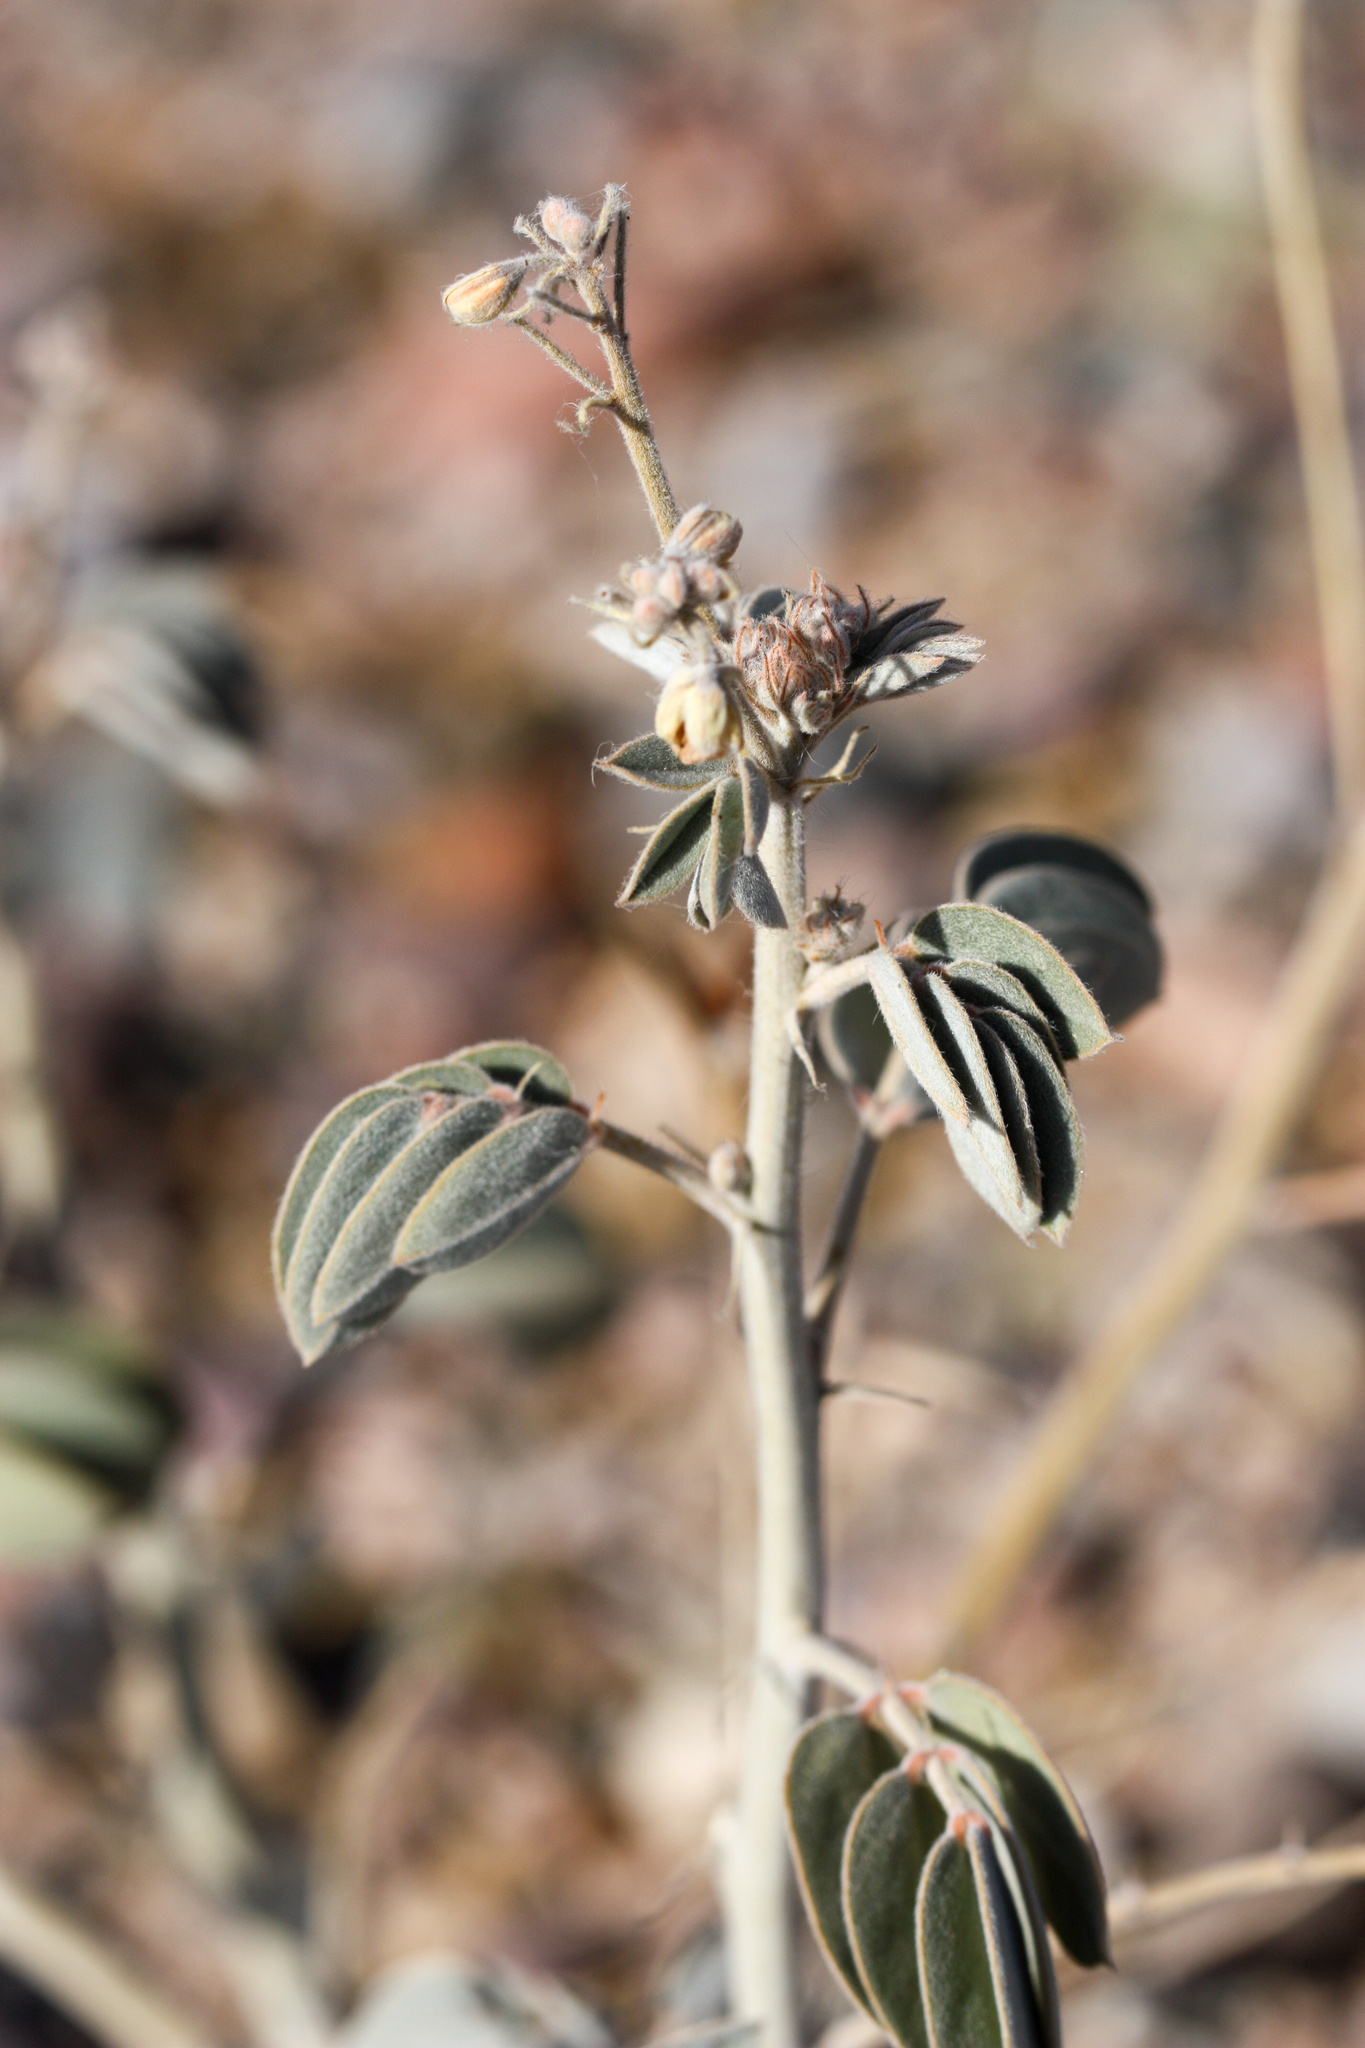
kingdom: Plantae
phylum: Tracheophyta
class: Magnoliopsida
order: Fabales
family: Fabaceae
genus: Senna
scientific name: Senna covesii
